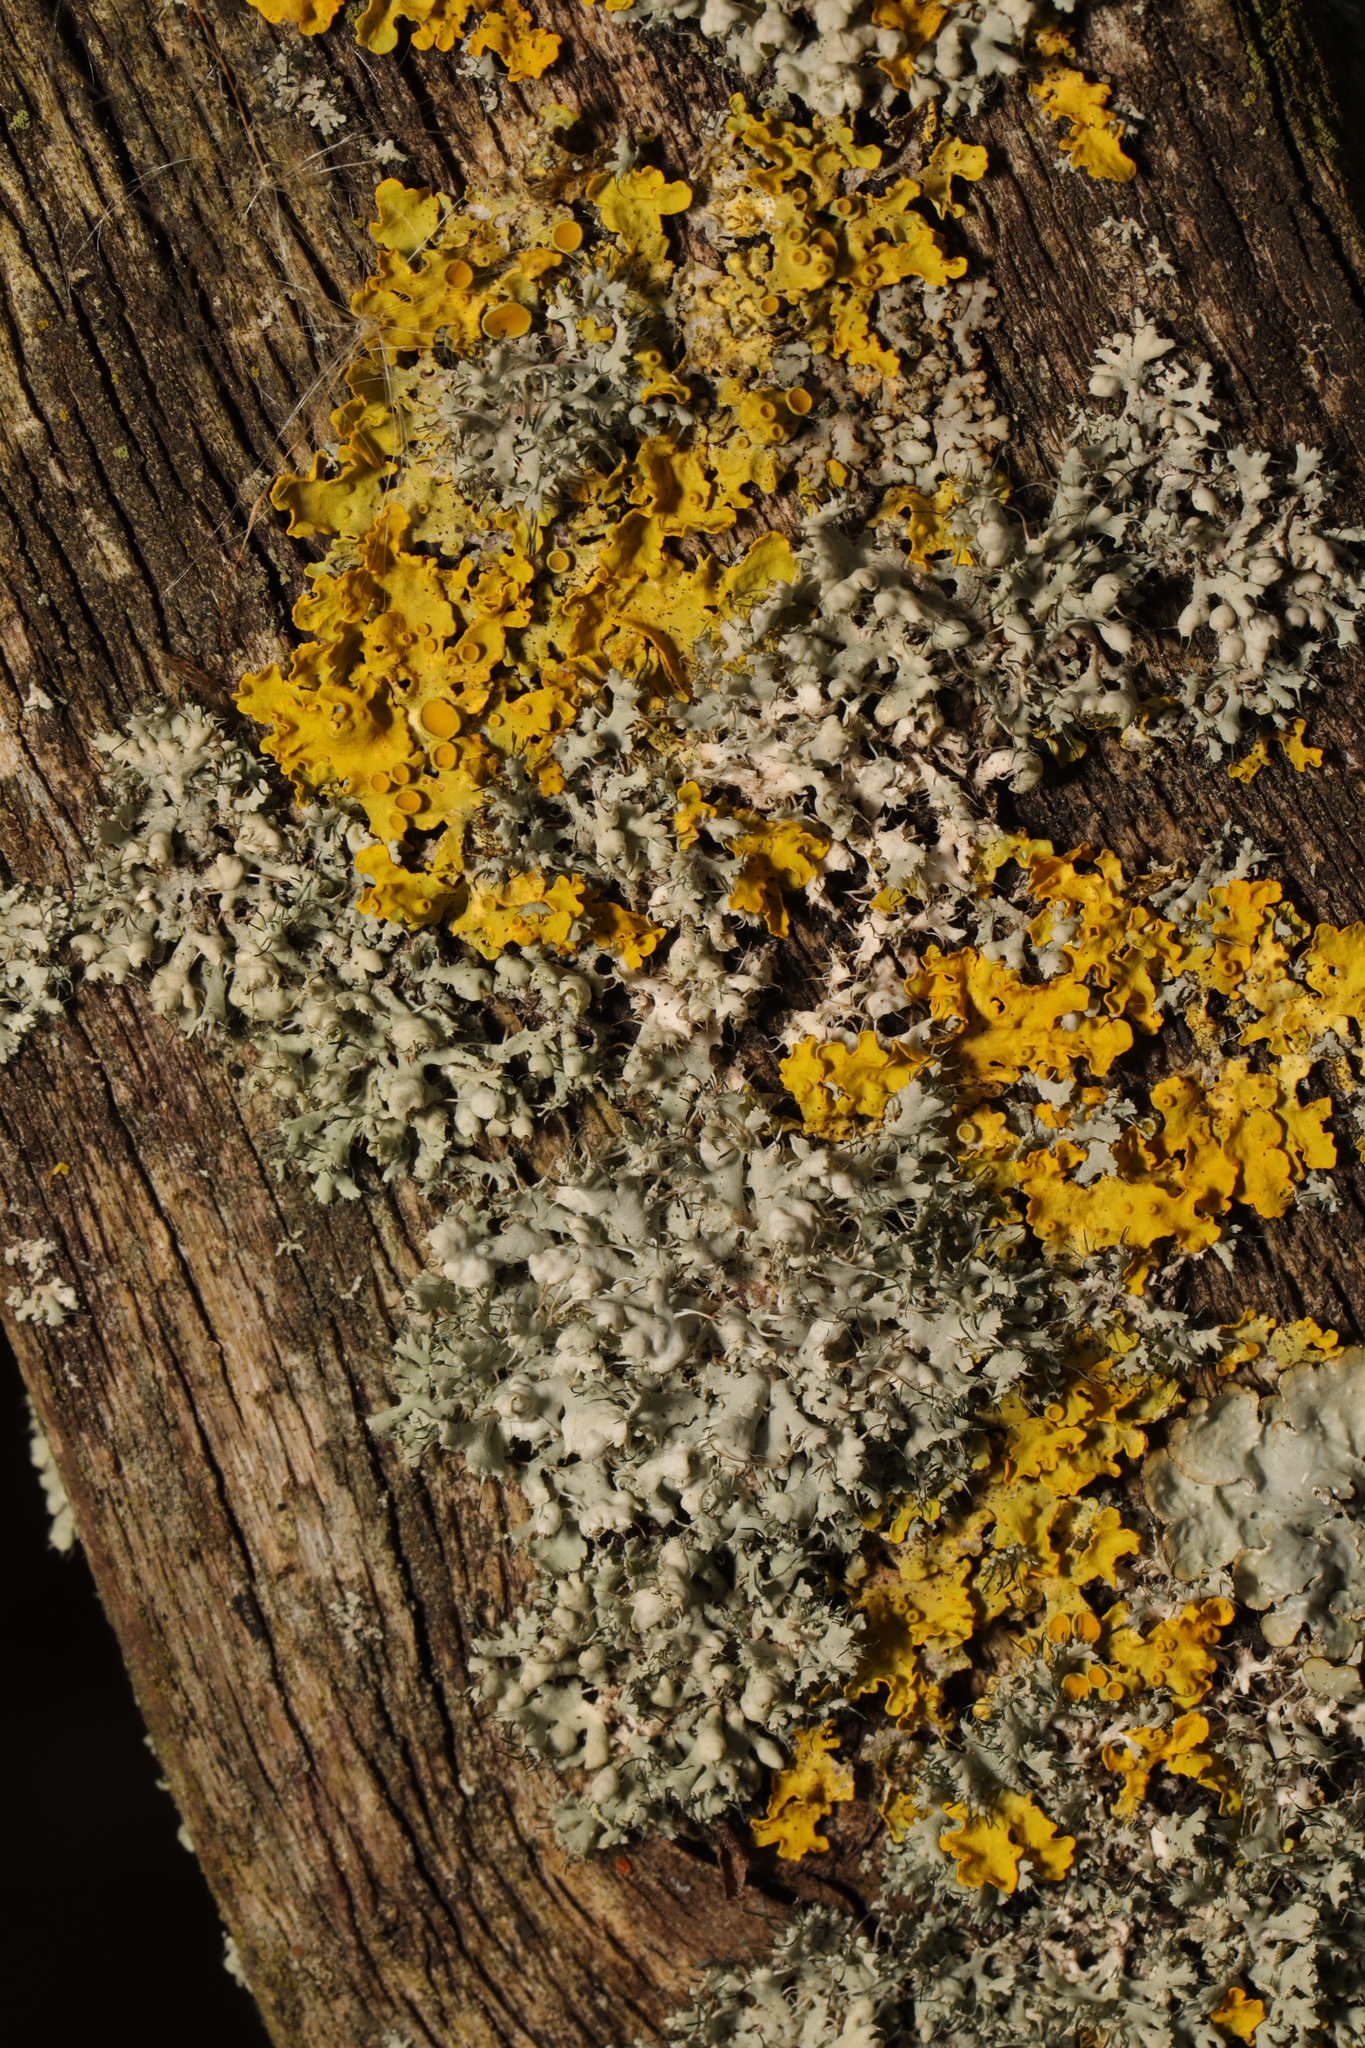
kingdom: Fungi
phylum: Ascomycota
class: Lecanoromycetes
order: Caliciales
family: Physciaceae
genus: Physcia
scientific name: Physcia adscendens
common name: Hooded rosette lichen
